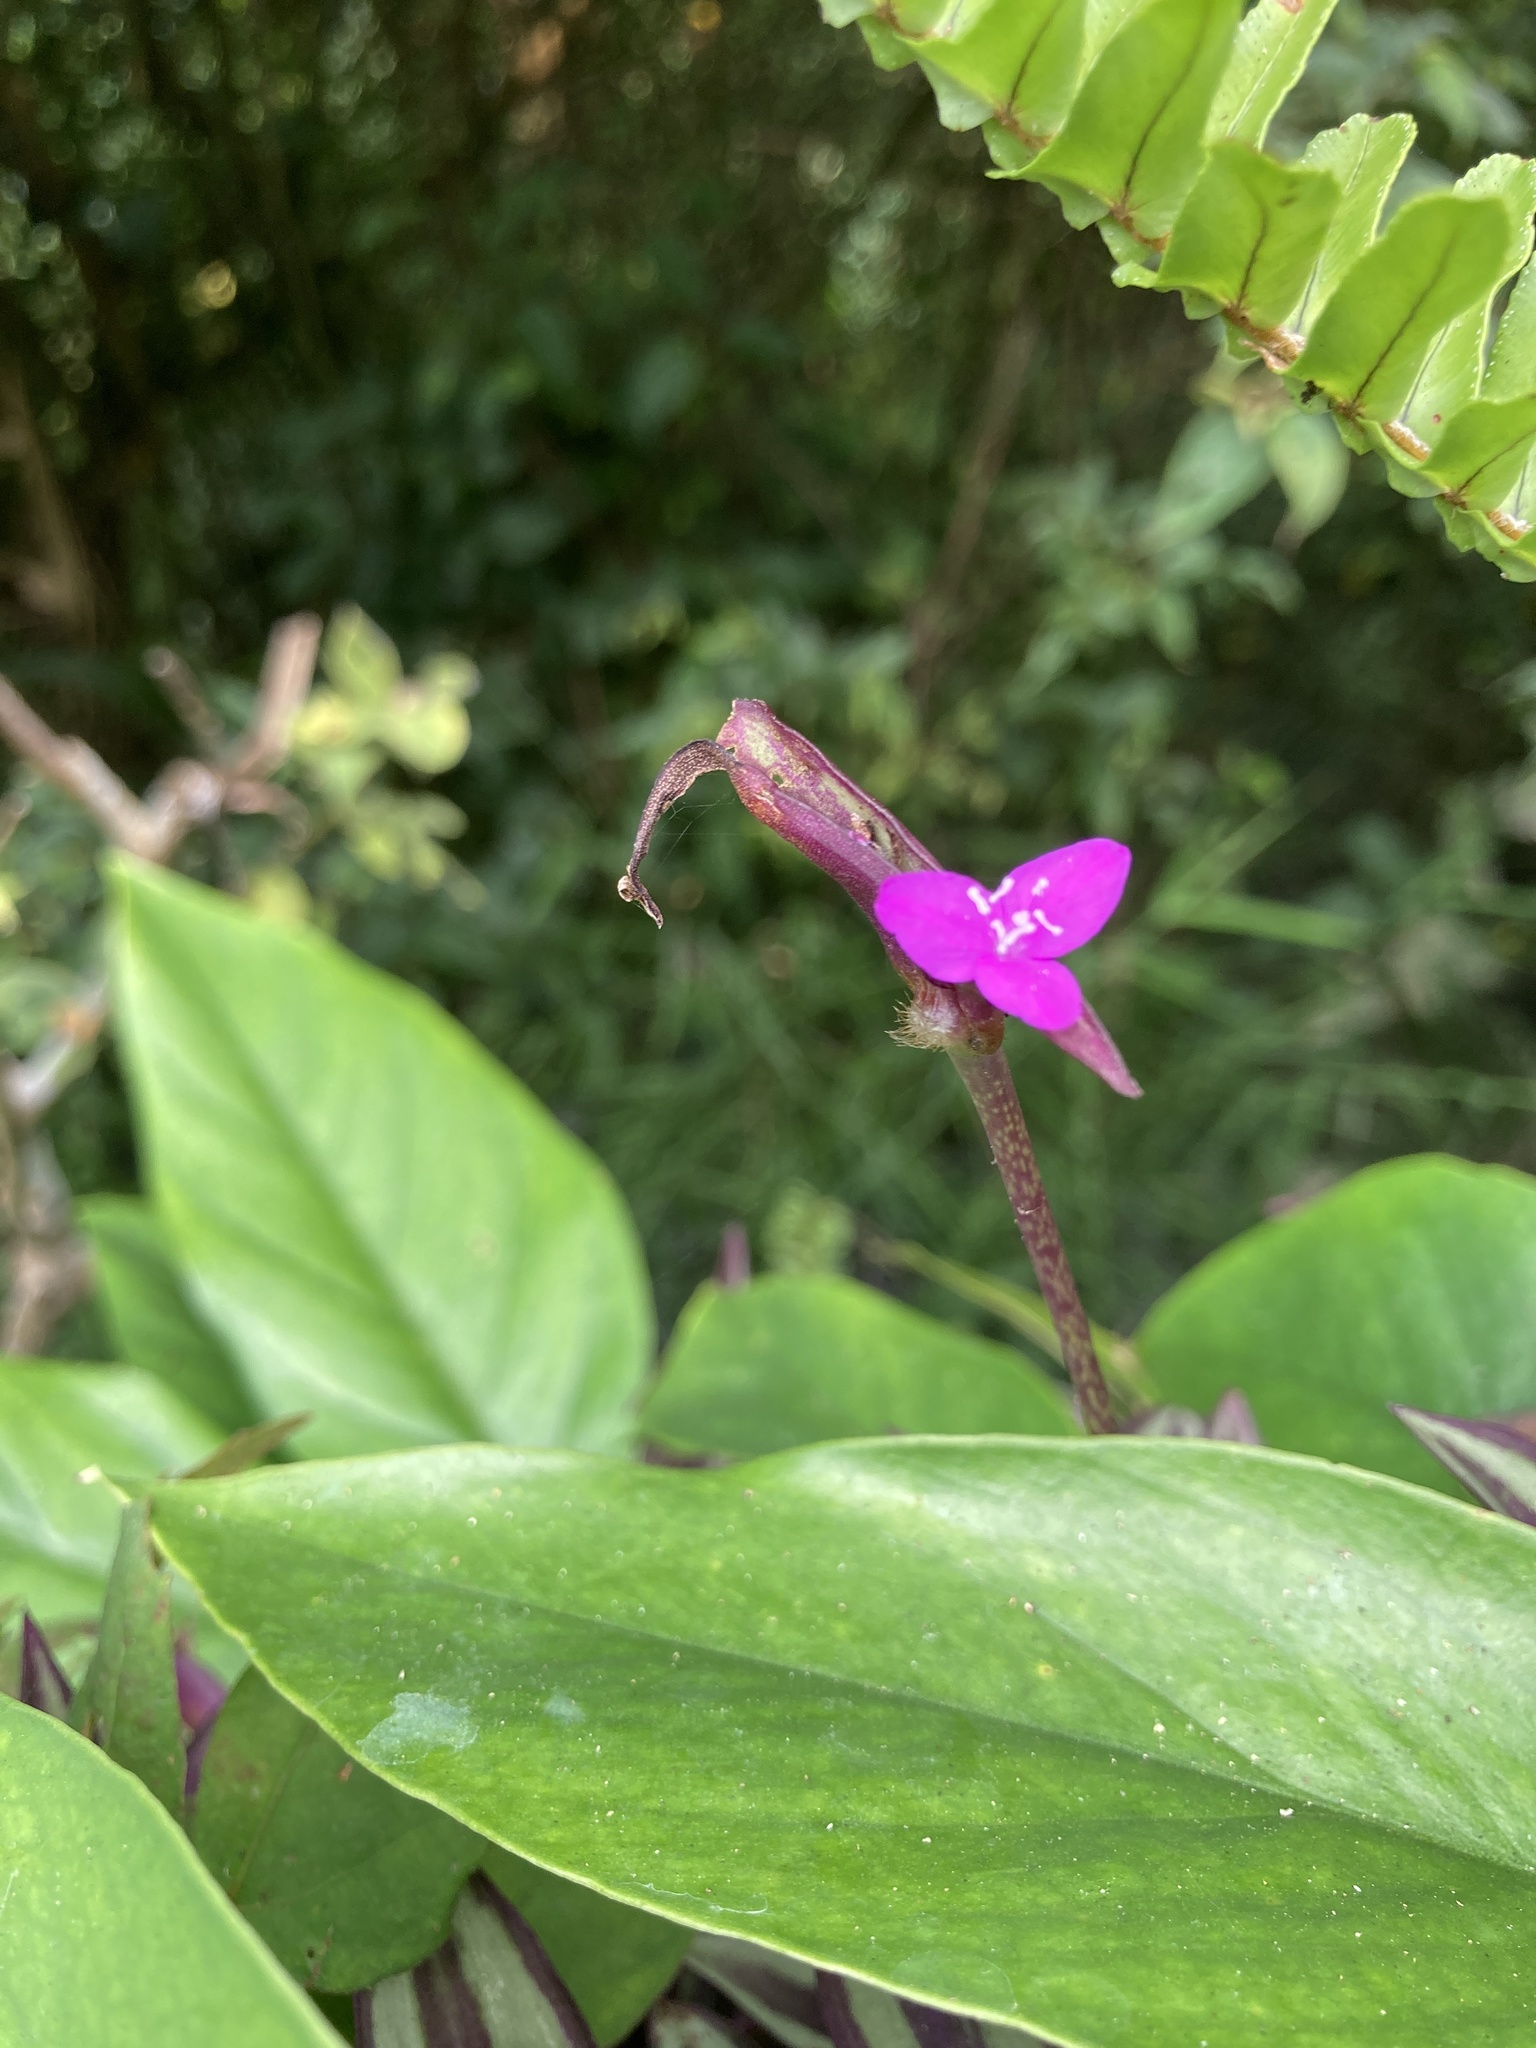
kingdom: Plantae
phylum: Tracheophyta
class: Liliopsida
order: Commelinales
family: Commelinaceae
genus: Tradescantia
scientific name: Tradescantia zebrina
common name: Inchplant
